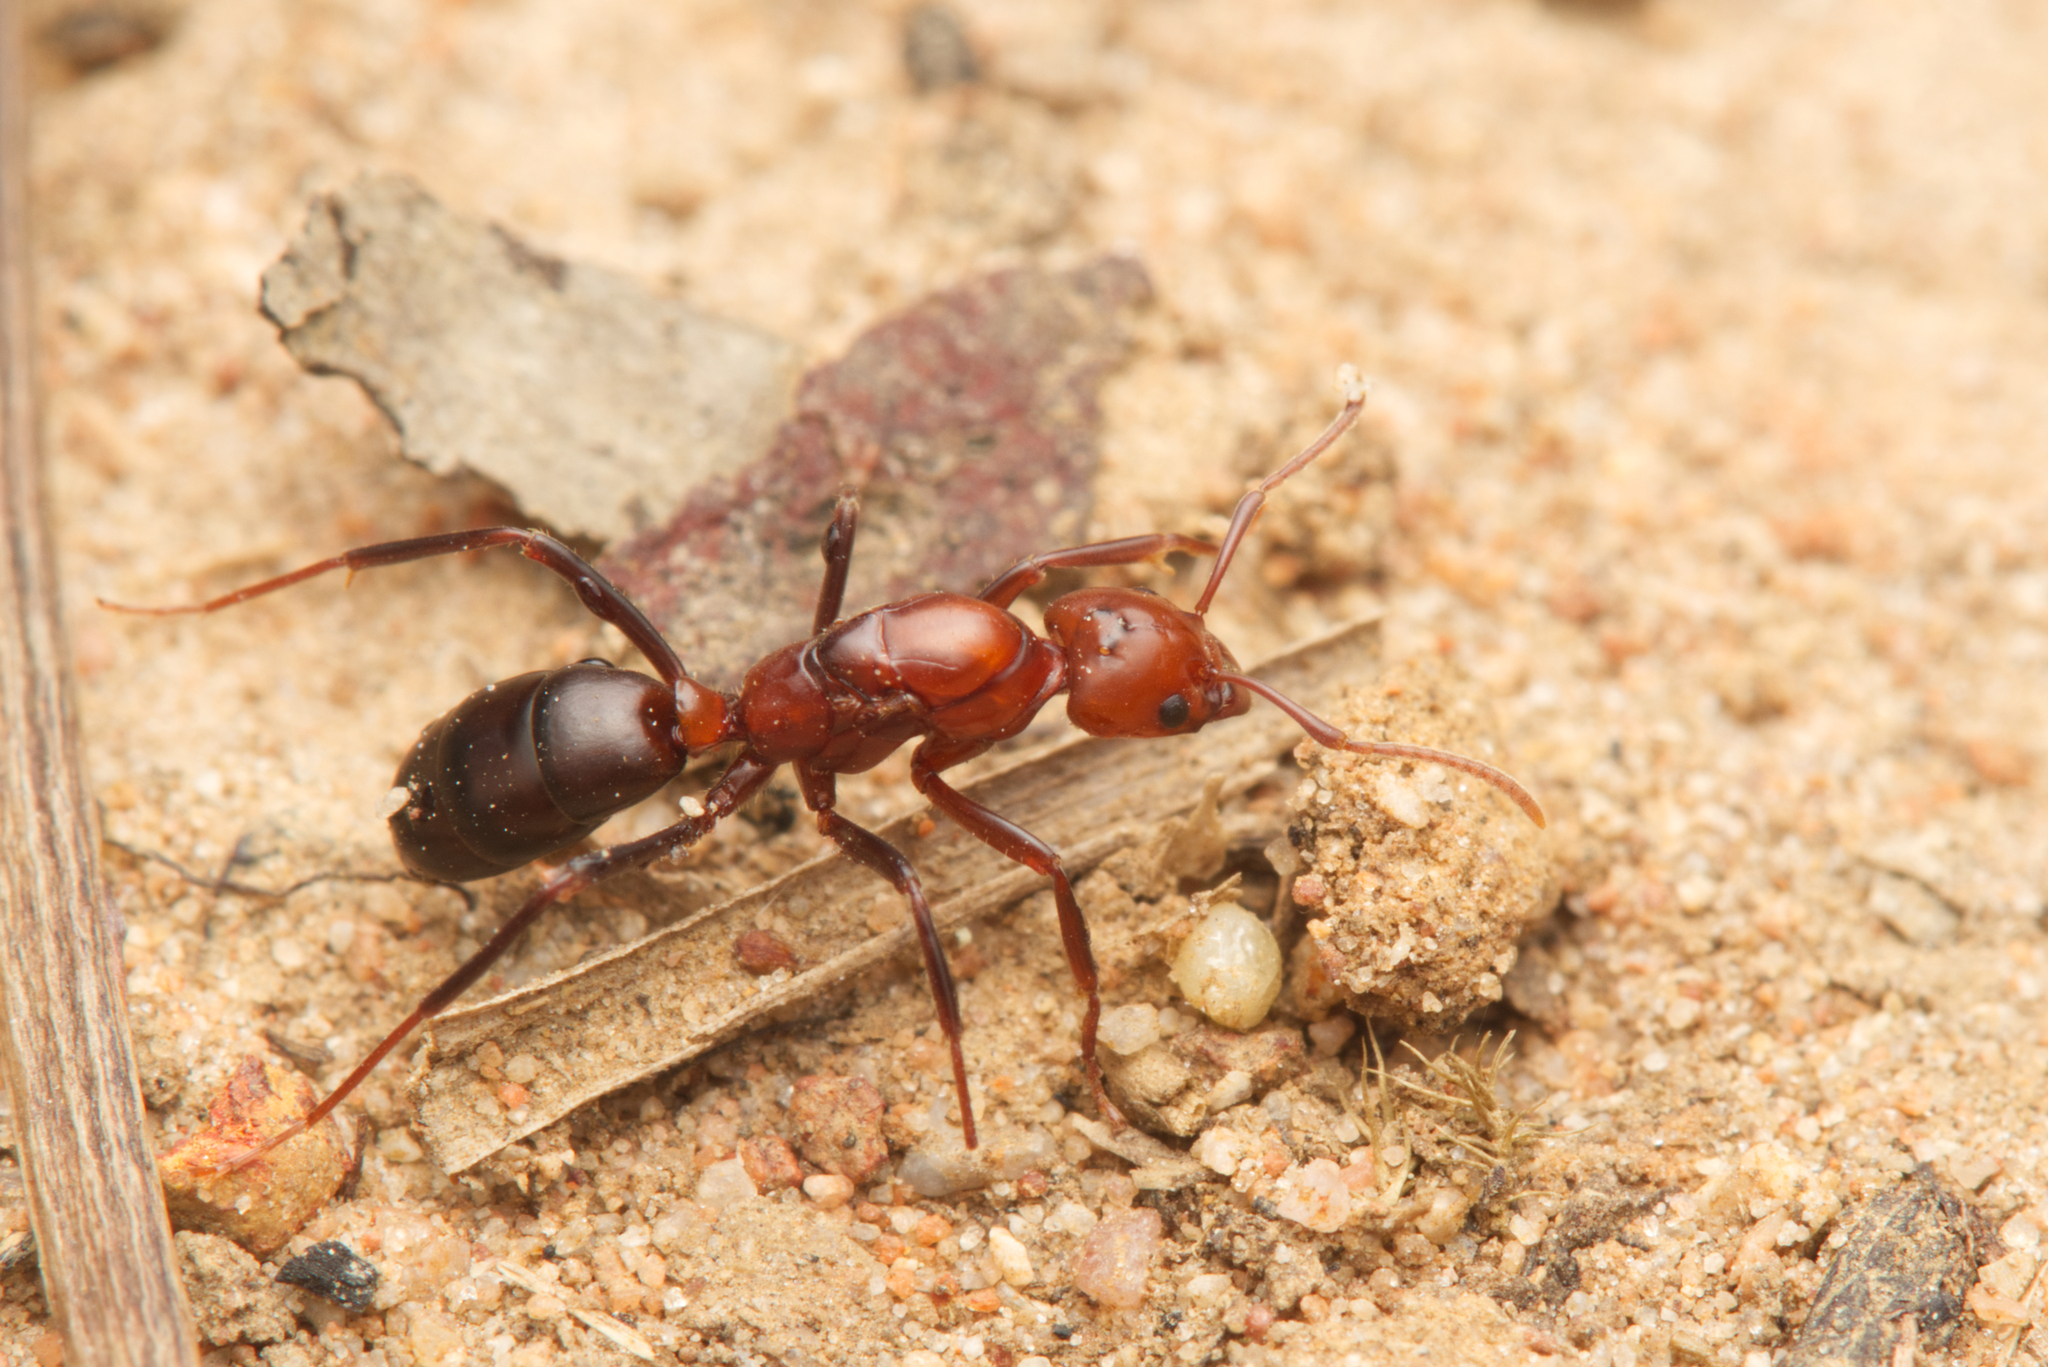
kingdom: Animalia
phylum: Arthropoda
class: Insecta
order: Hymenoptera
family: Formicidae
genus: Papyrius
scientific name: Papyrius nitidus
